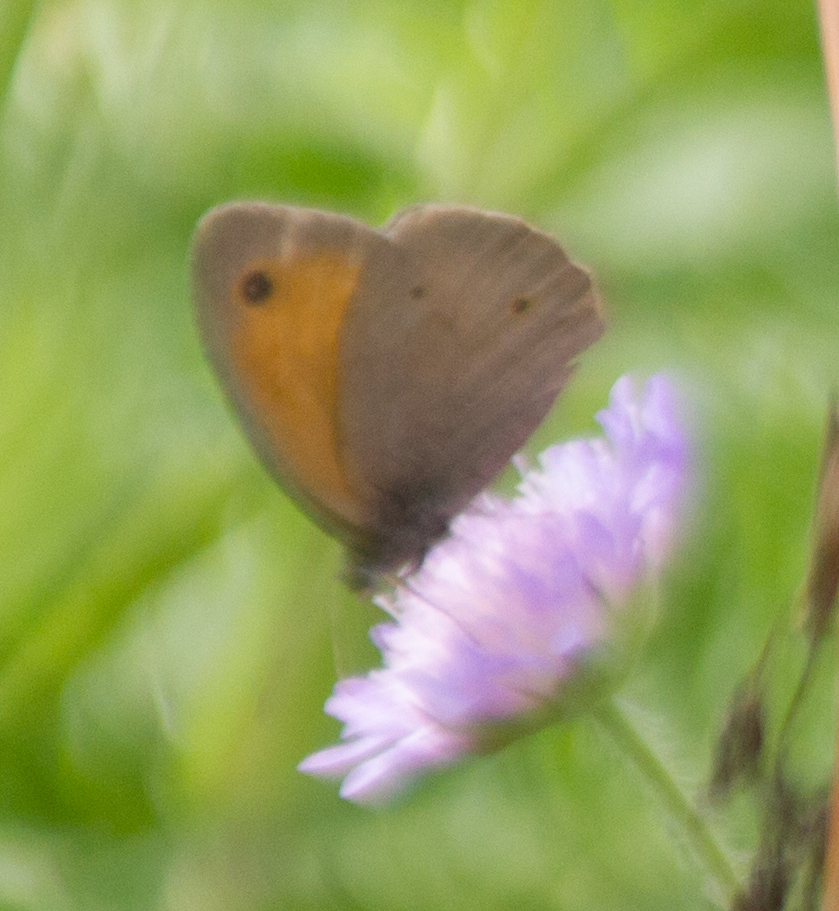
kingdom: Animalia
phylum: Arthropoda
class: Insecta
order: Lepidoptera
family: Nymphalidae
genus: Maniola
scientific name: Maniola jurtina
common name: Meadow brown
